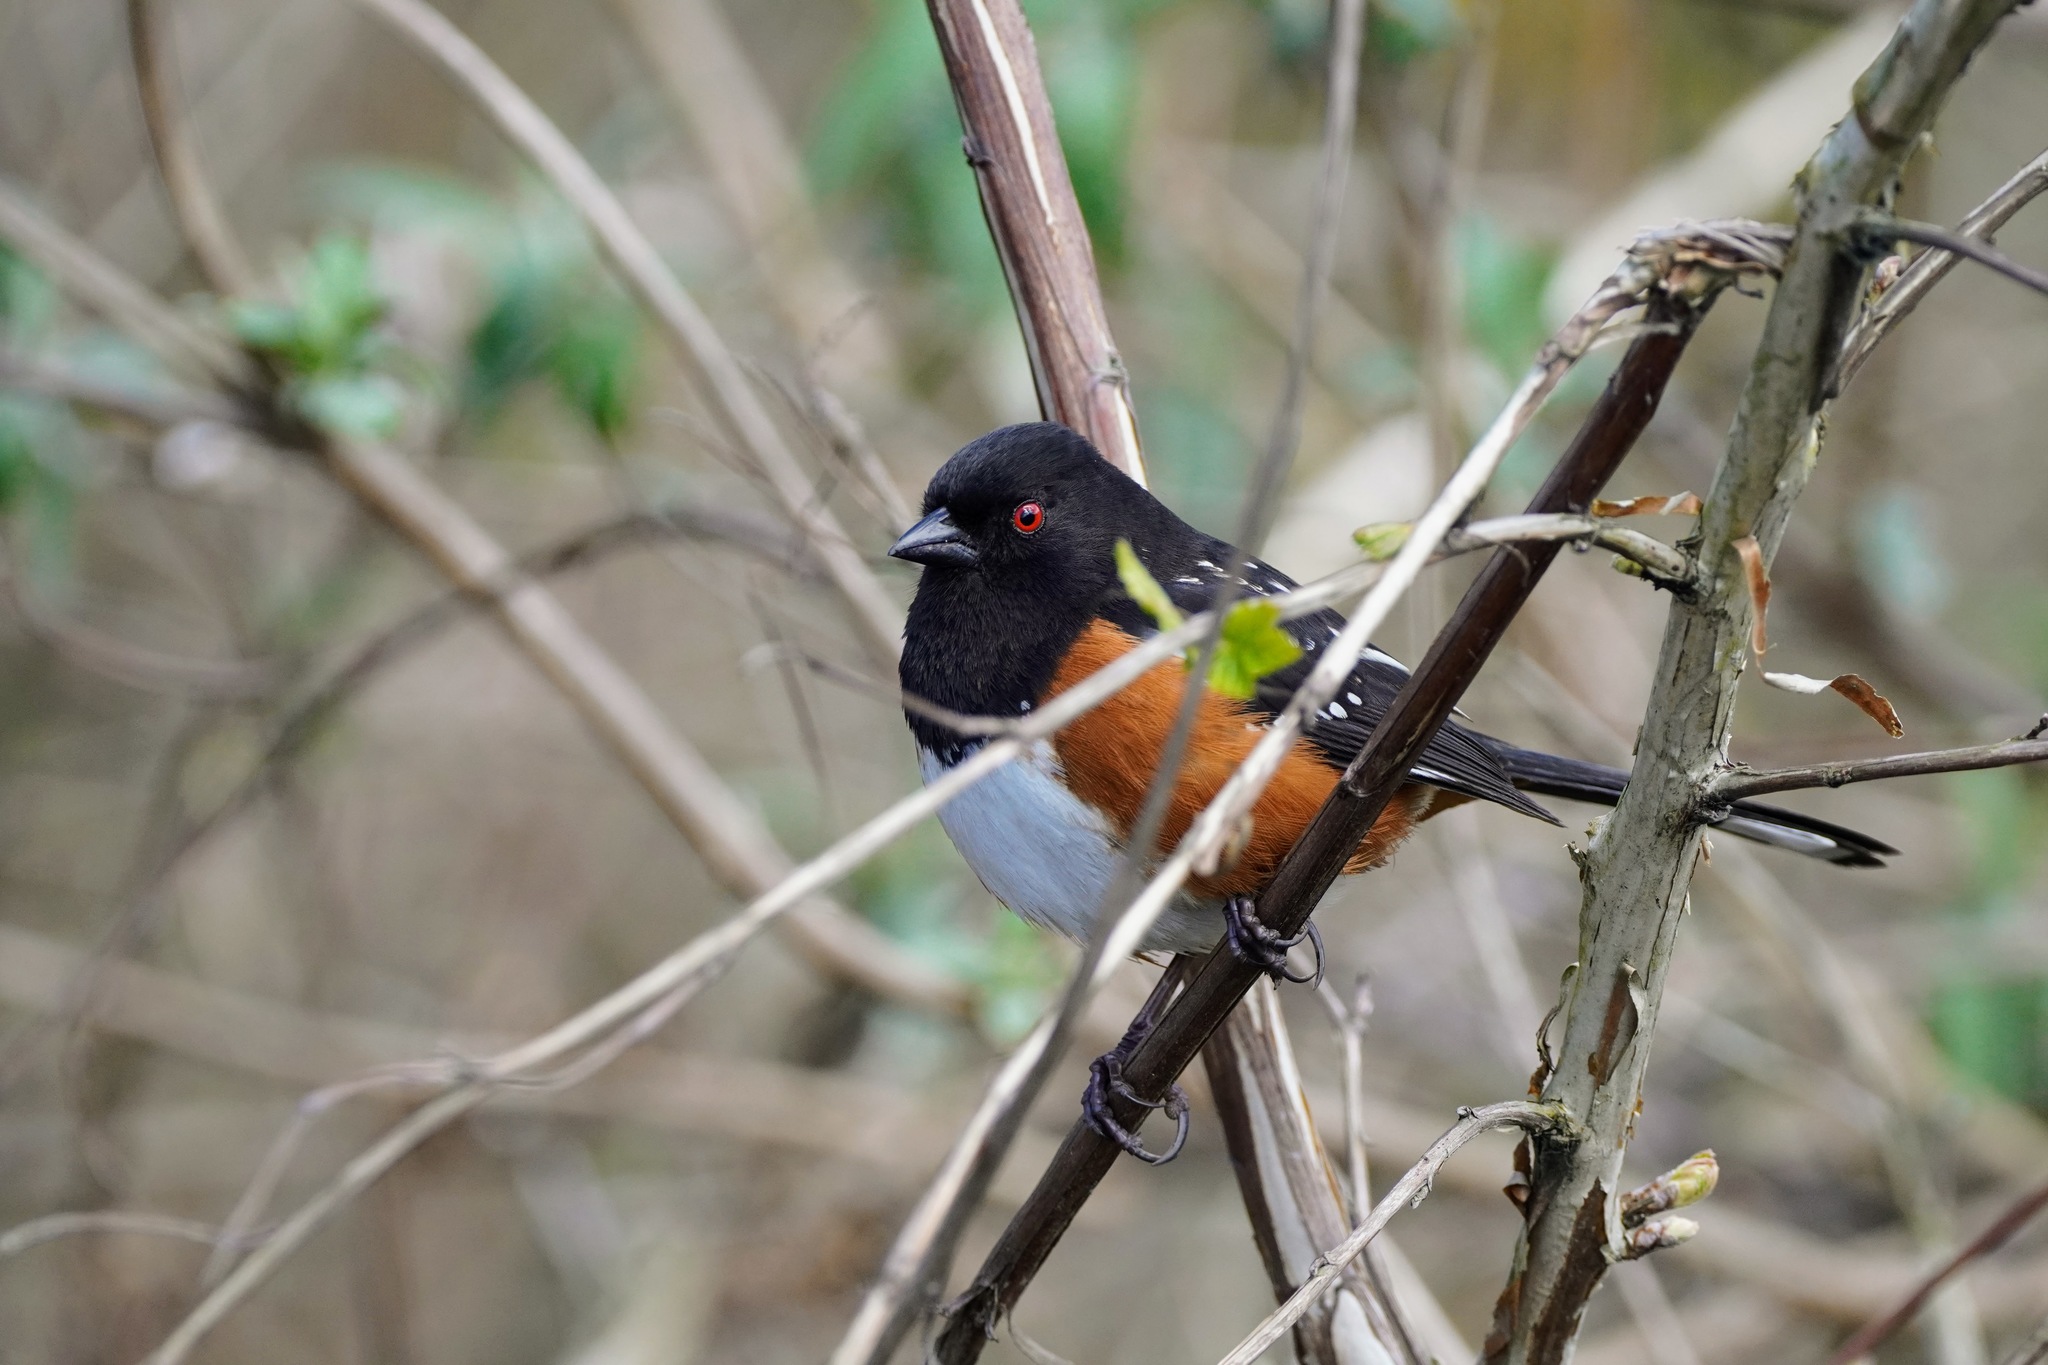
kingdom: Animalia
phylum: Chordata
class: Aves
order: Passeriformes
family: Passerellidae
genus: Pipilo
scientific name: Pipilo maculatus
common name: Spotted towhee
